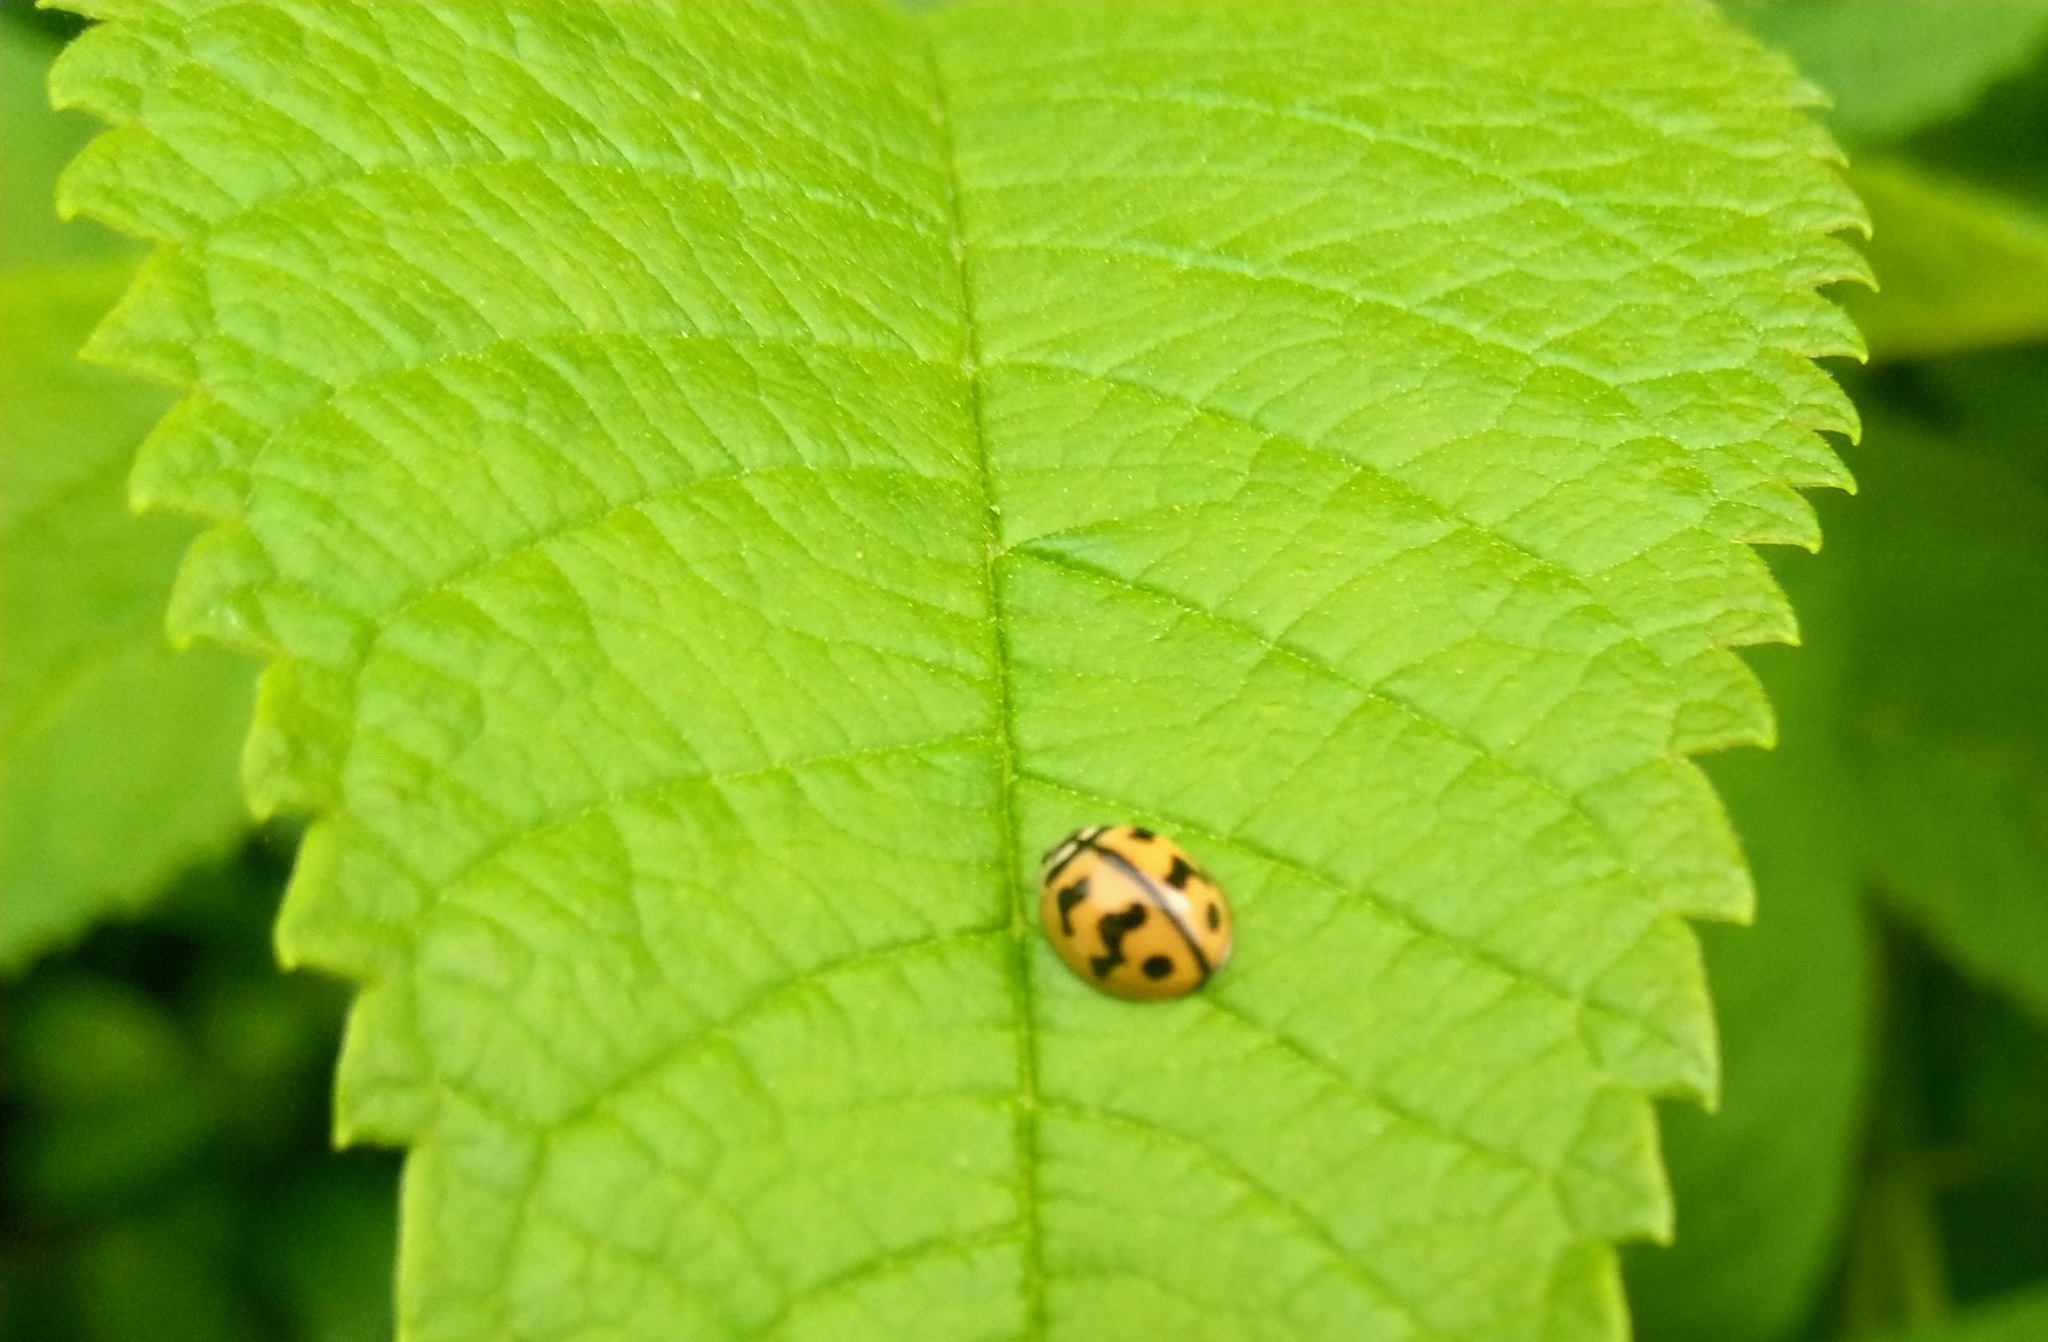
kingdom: Animalia
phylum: Arthropoda
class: Insecta
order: Coleoptera
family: Coccinellidae
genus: Cheilomenes
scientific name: Cheilomenes sexmaculata
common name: Ladybird beetle
